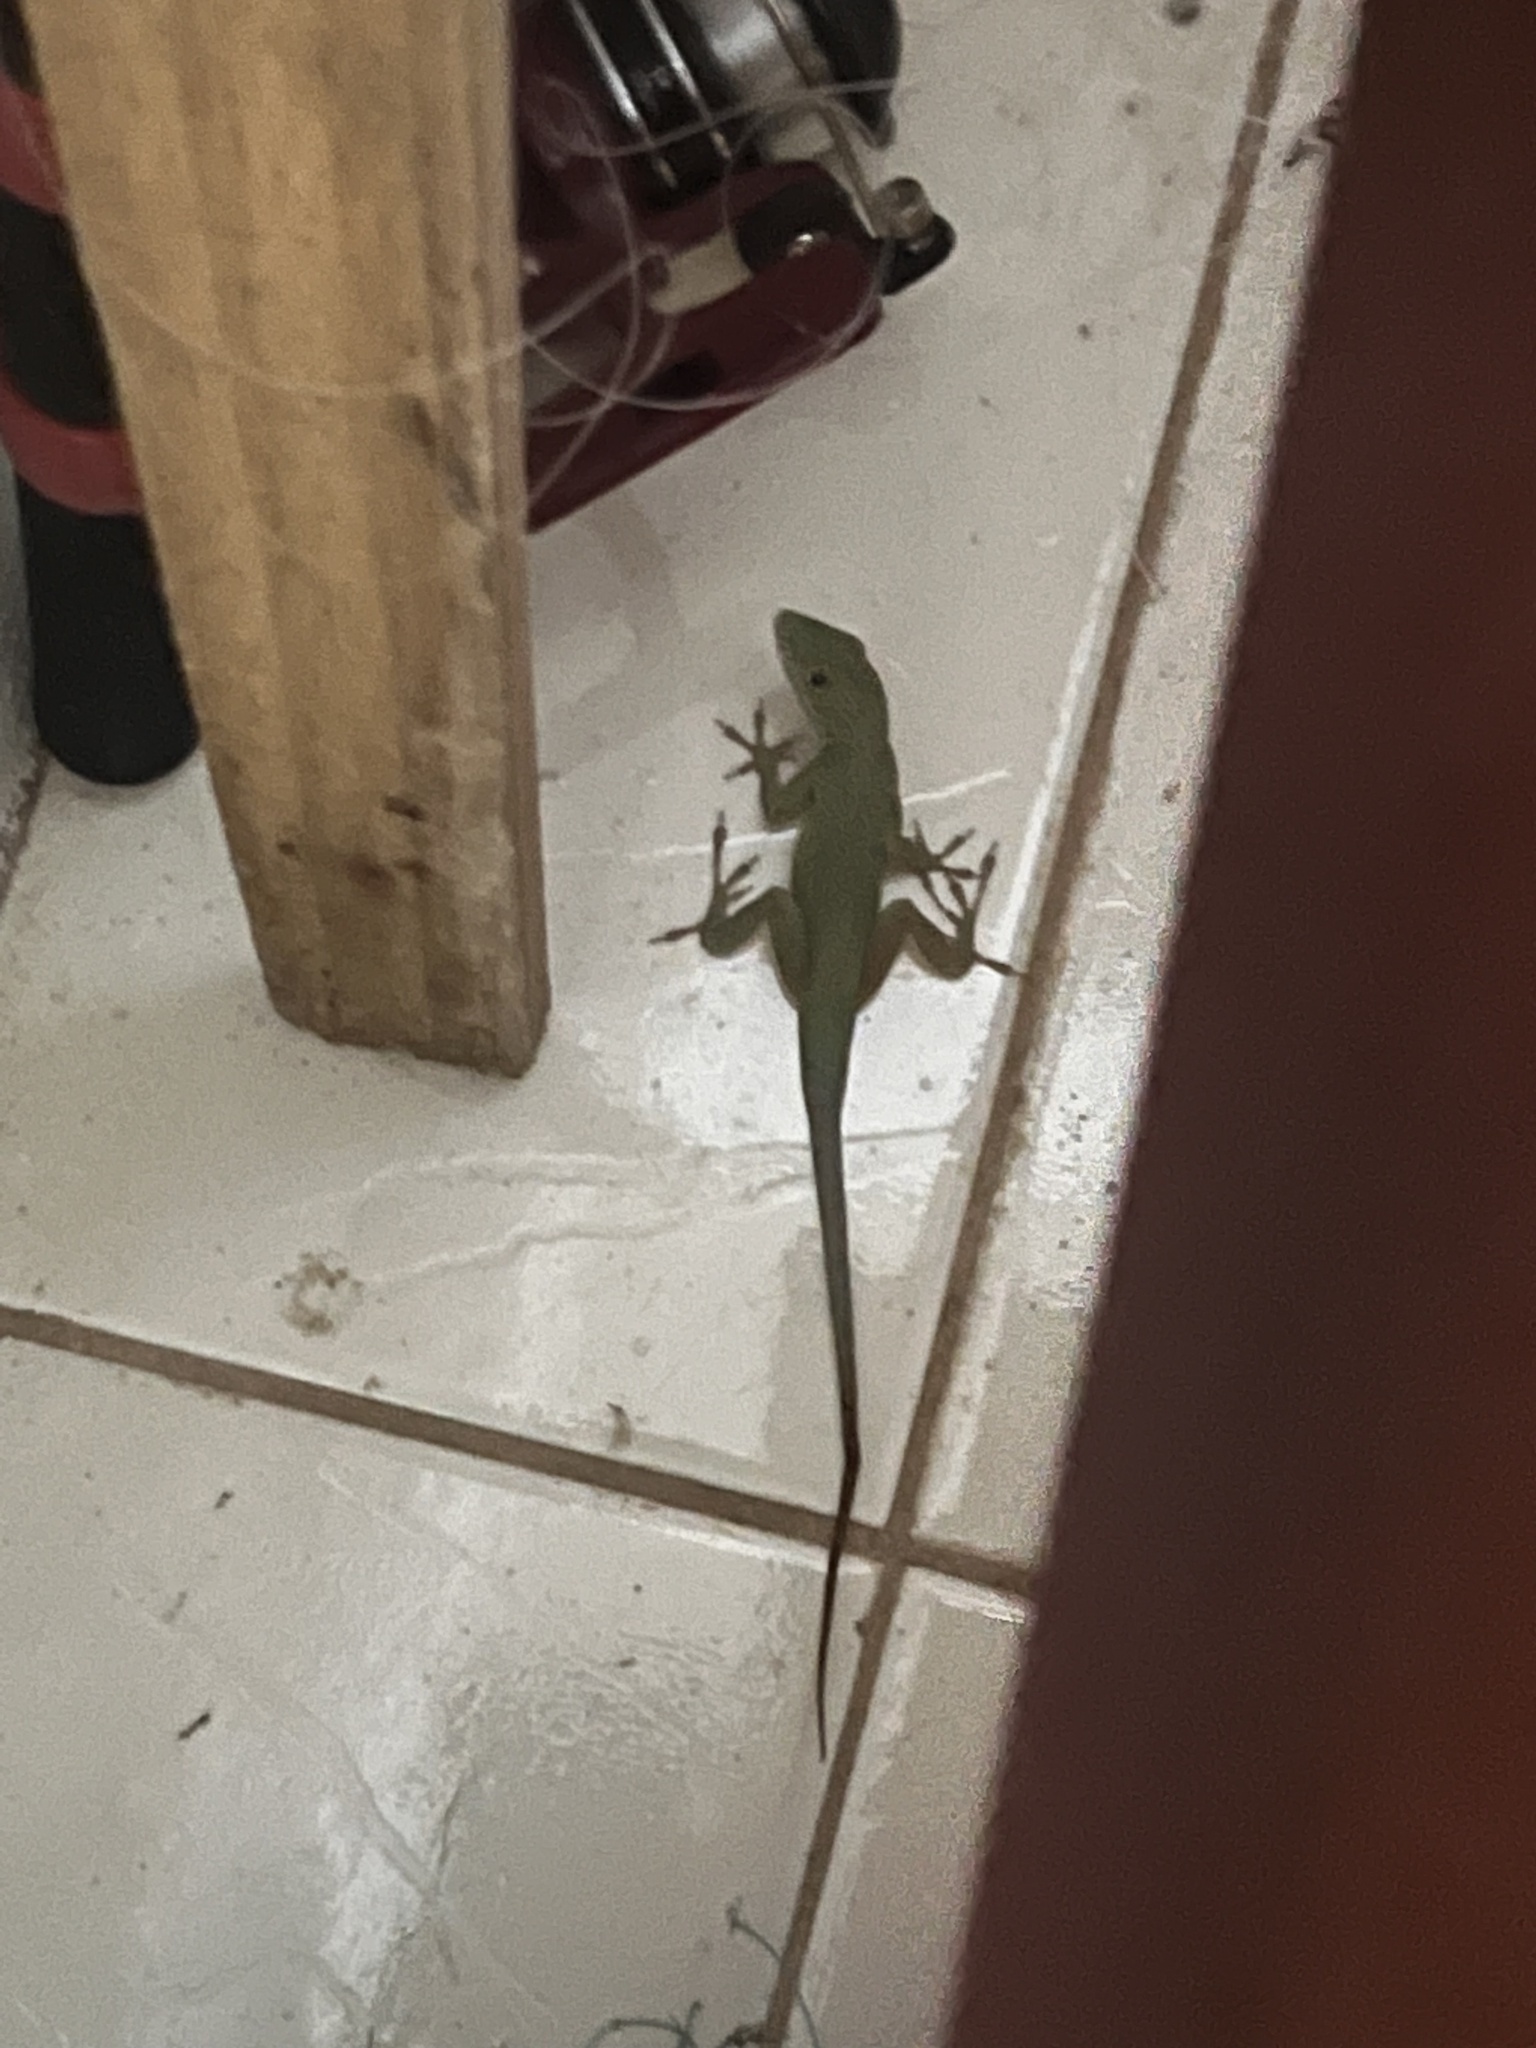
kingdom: Animalia
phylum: Chordata
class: Squamata
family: Dactyloidae
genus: Anolis
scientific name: Anolis grahami
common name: Graham's anole
